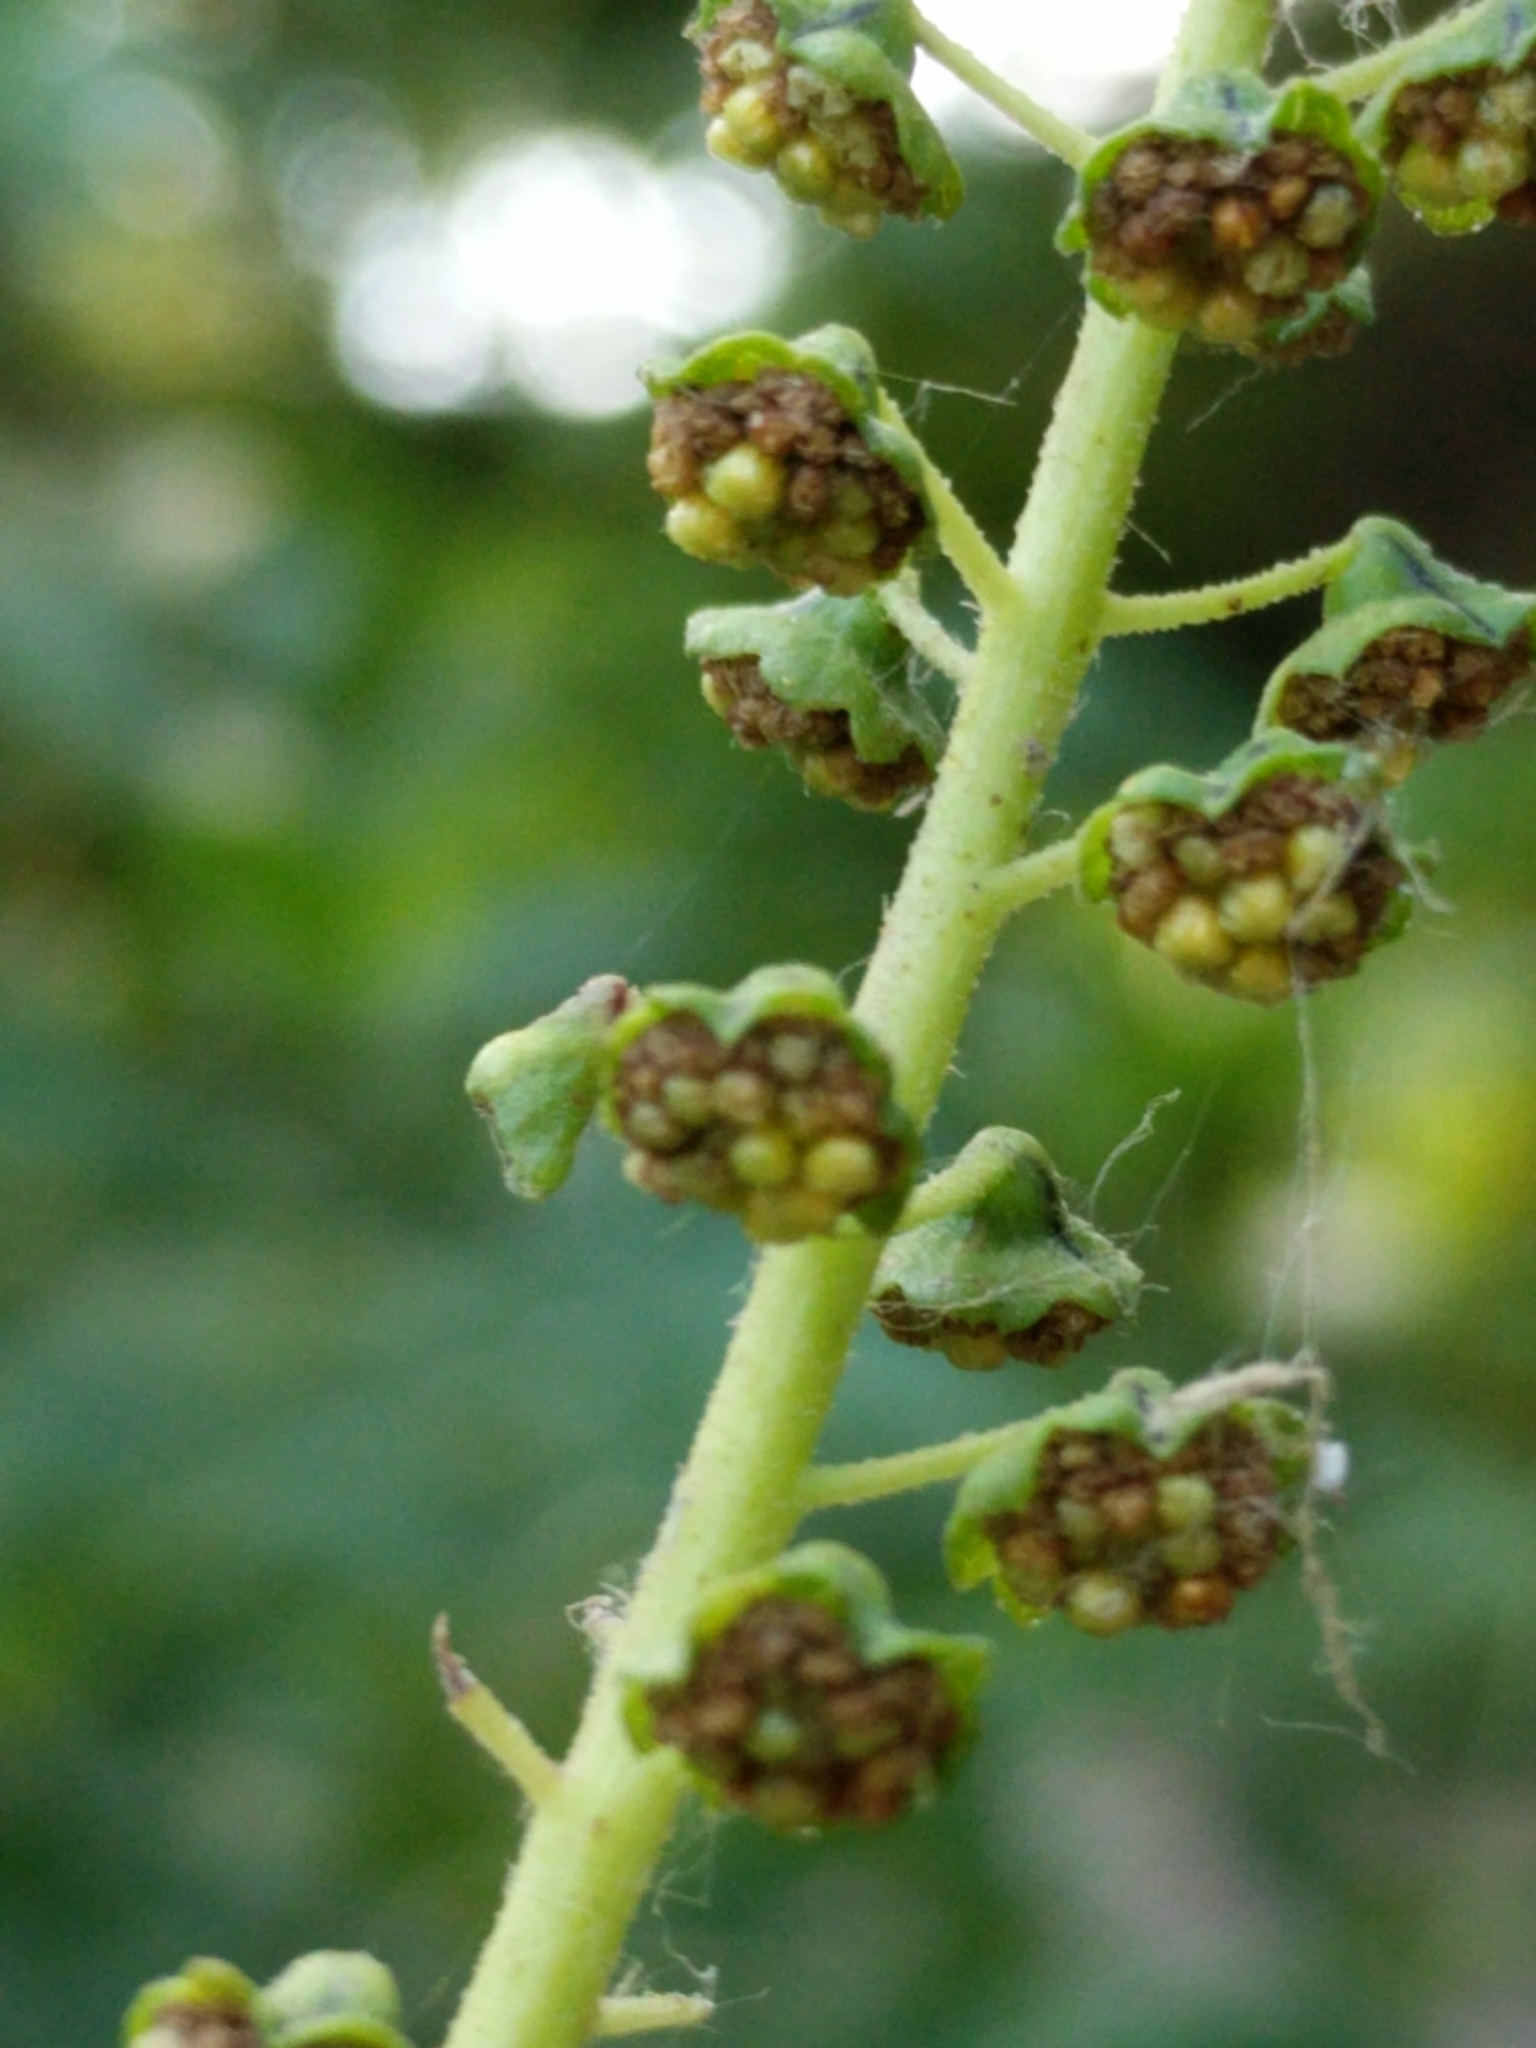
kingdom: Plantae
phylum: Tracheophyta
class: Magnoliopsida
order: Asterales
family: Asteraceae
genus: Ambrosia
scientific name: Ambrosia trifida
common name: Giant ragweed
